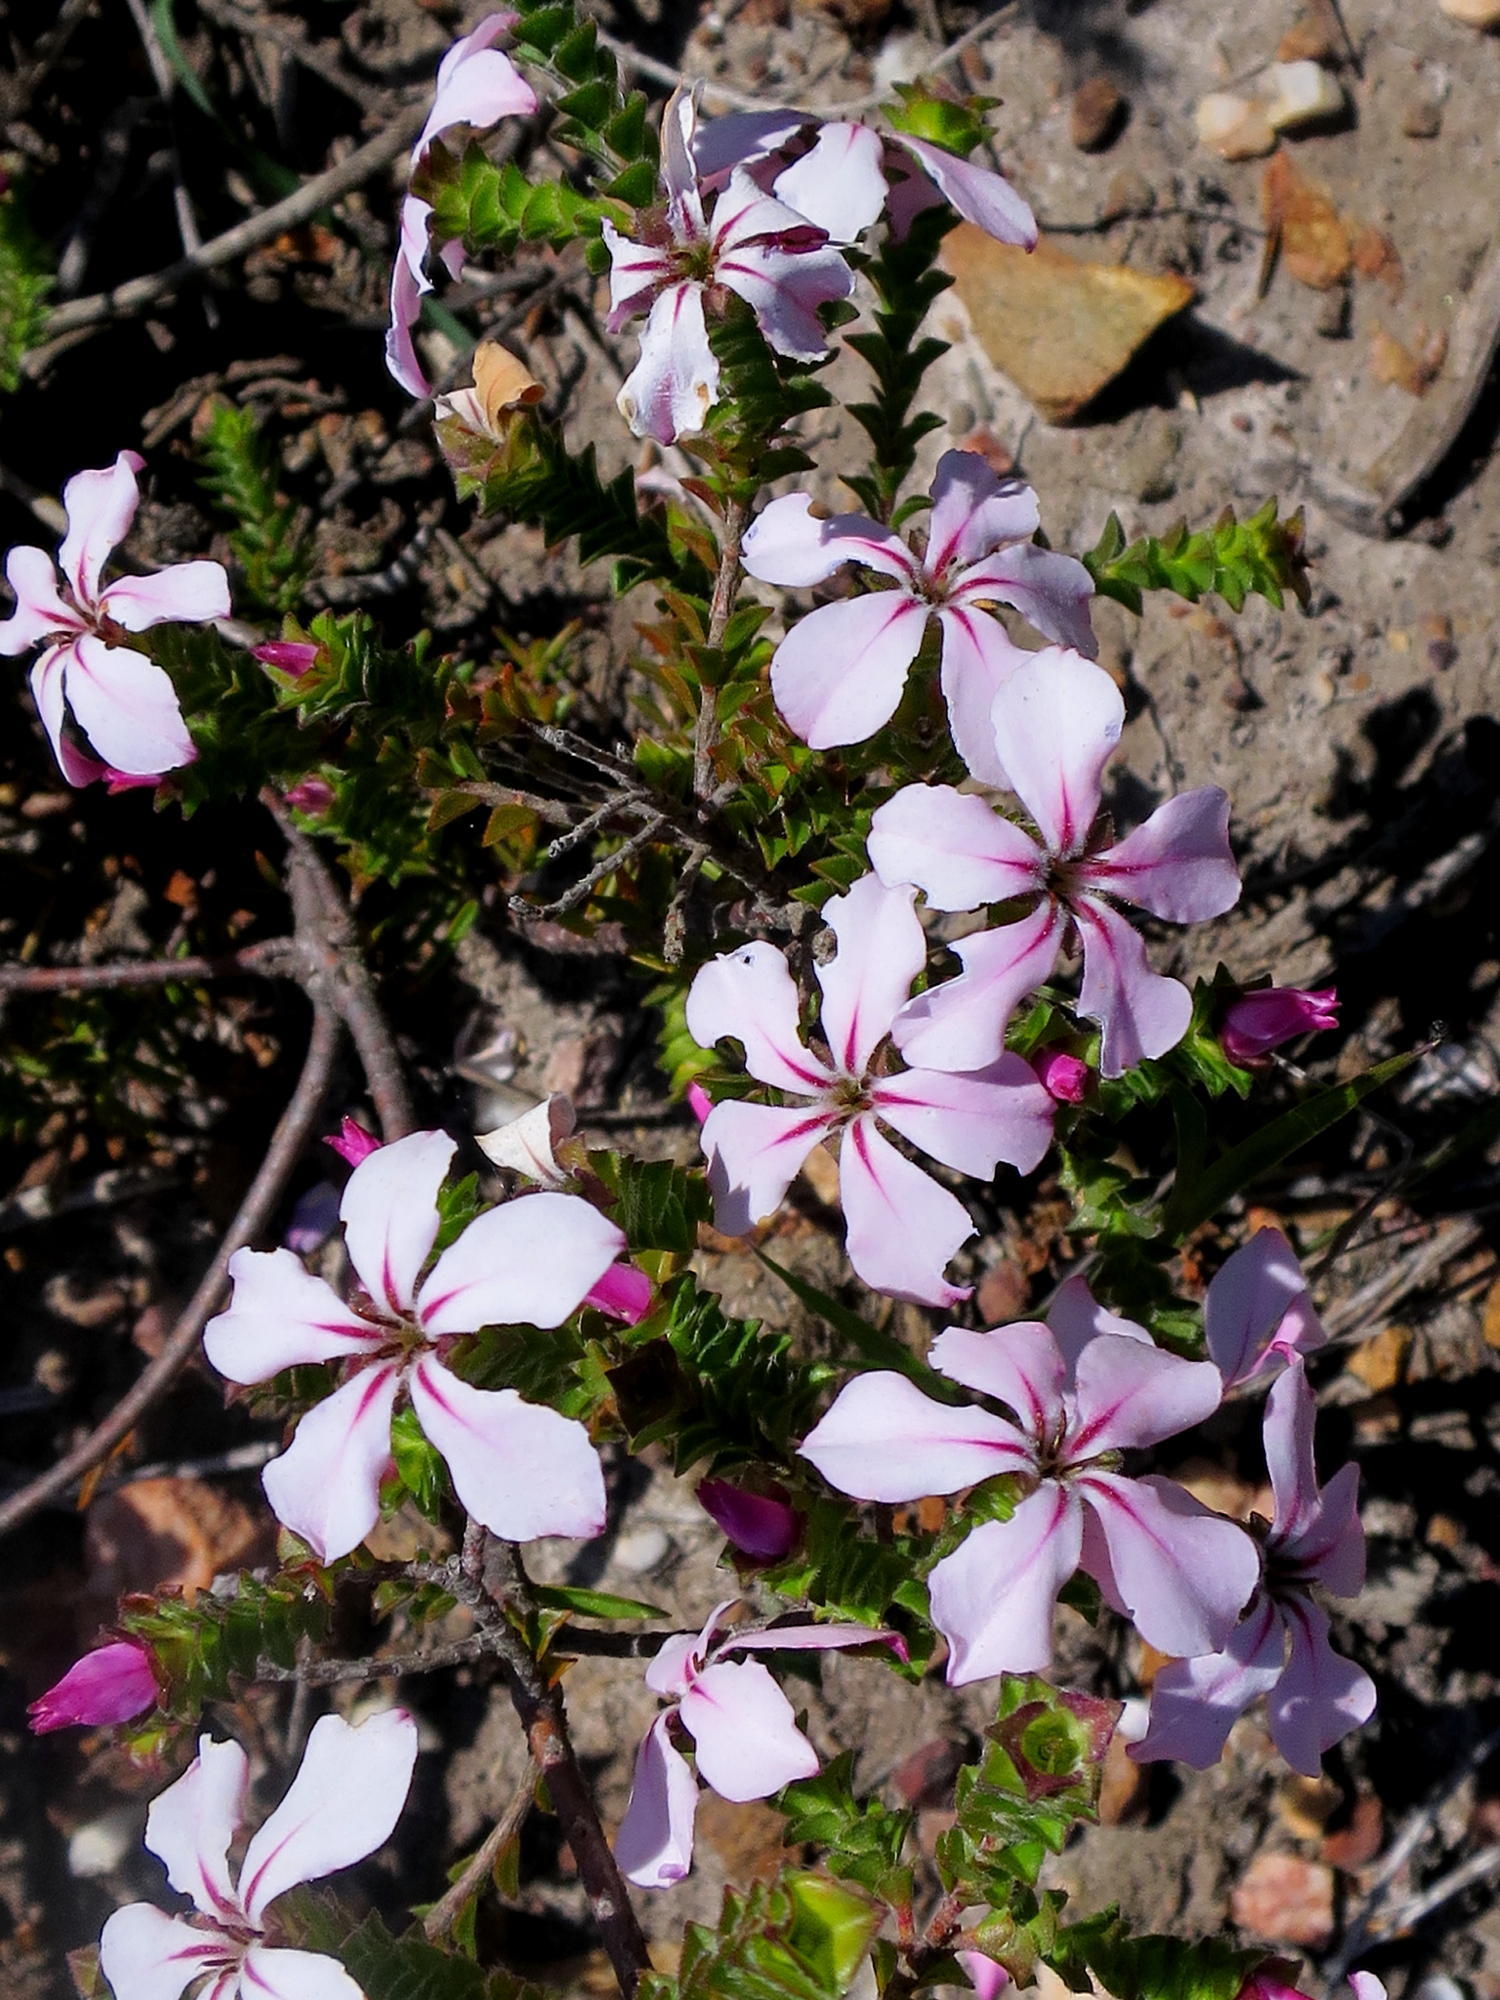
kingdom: Plantae
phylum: Tracheophyta
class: Magnoliopsida
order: Sapindales
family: Rutaceae
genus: Acmadenia
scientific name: Acmadenia tetragona
